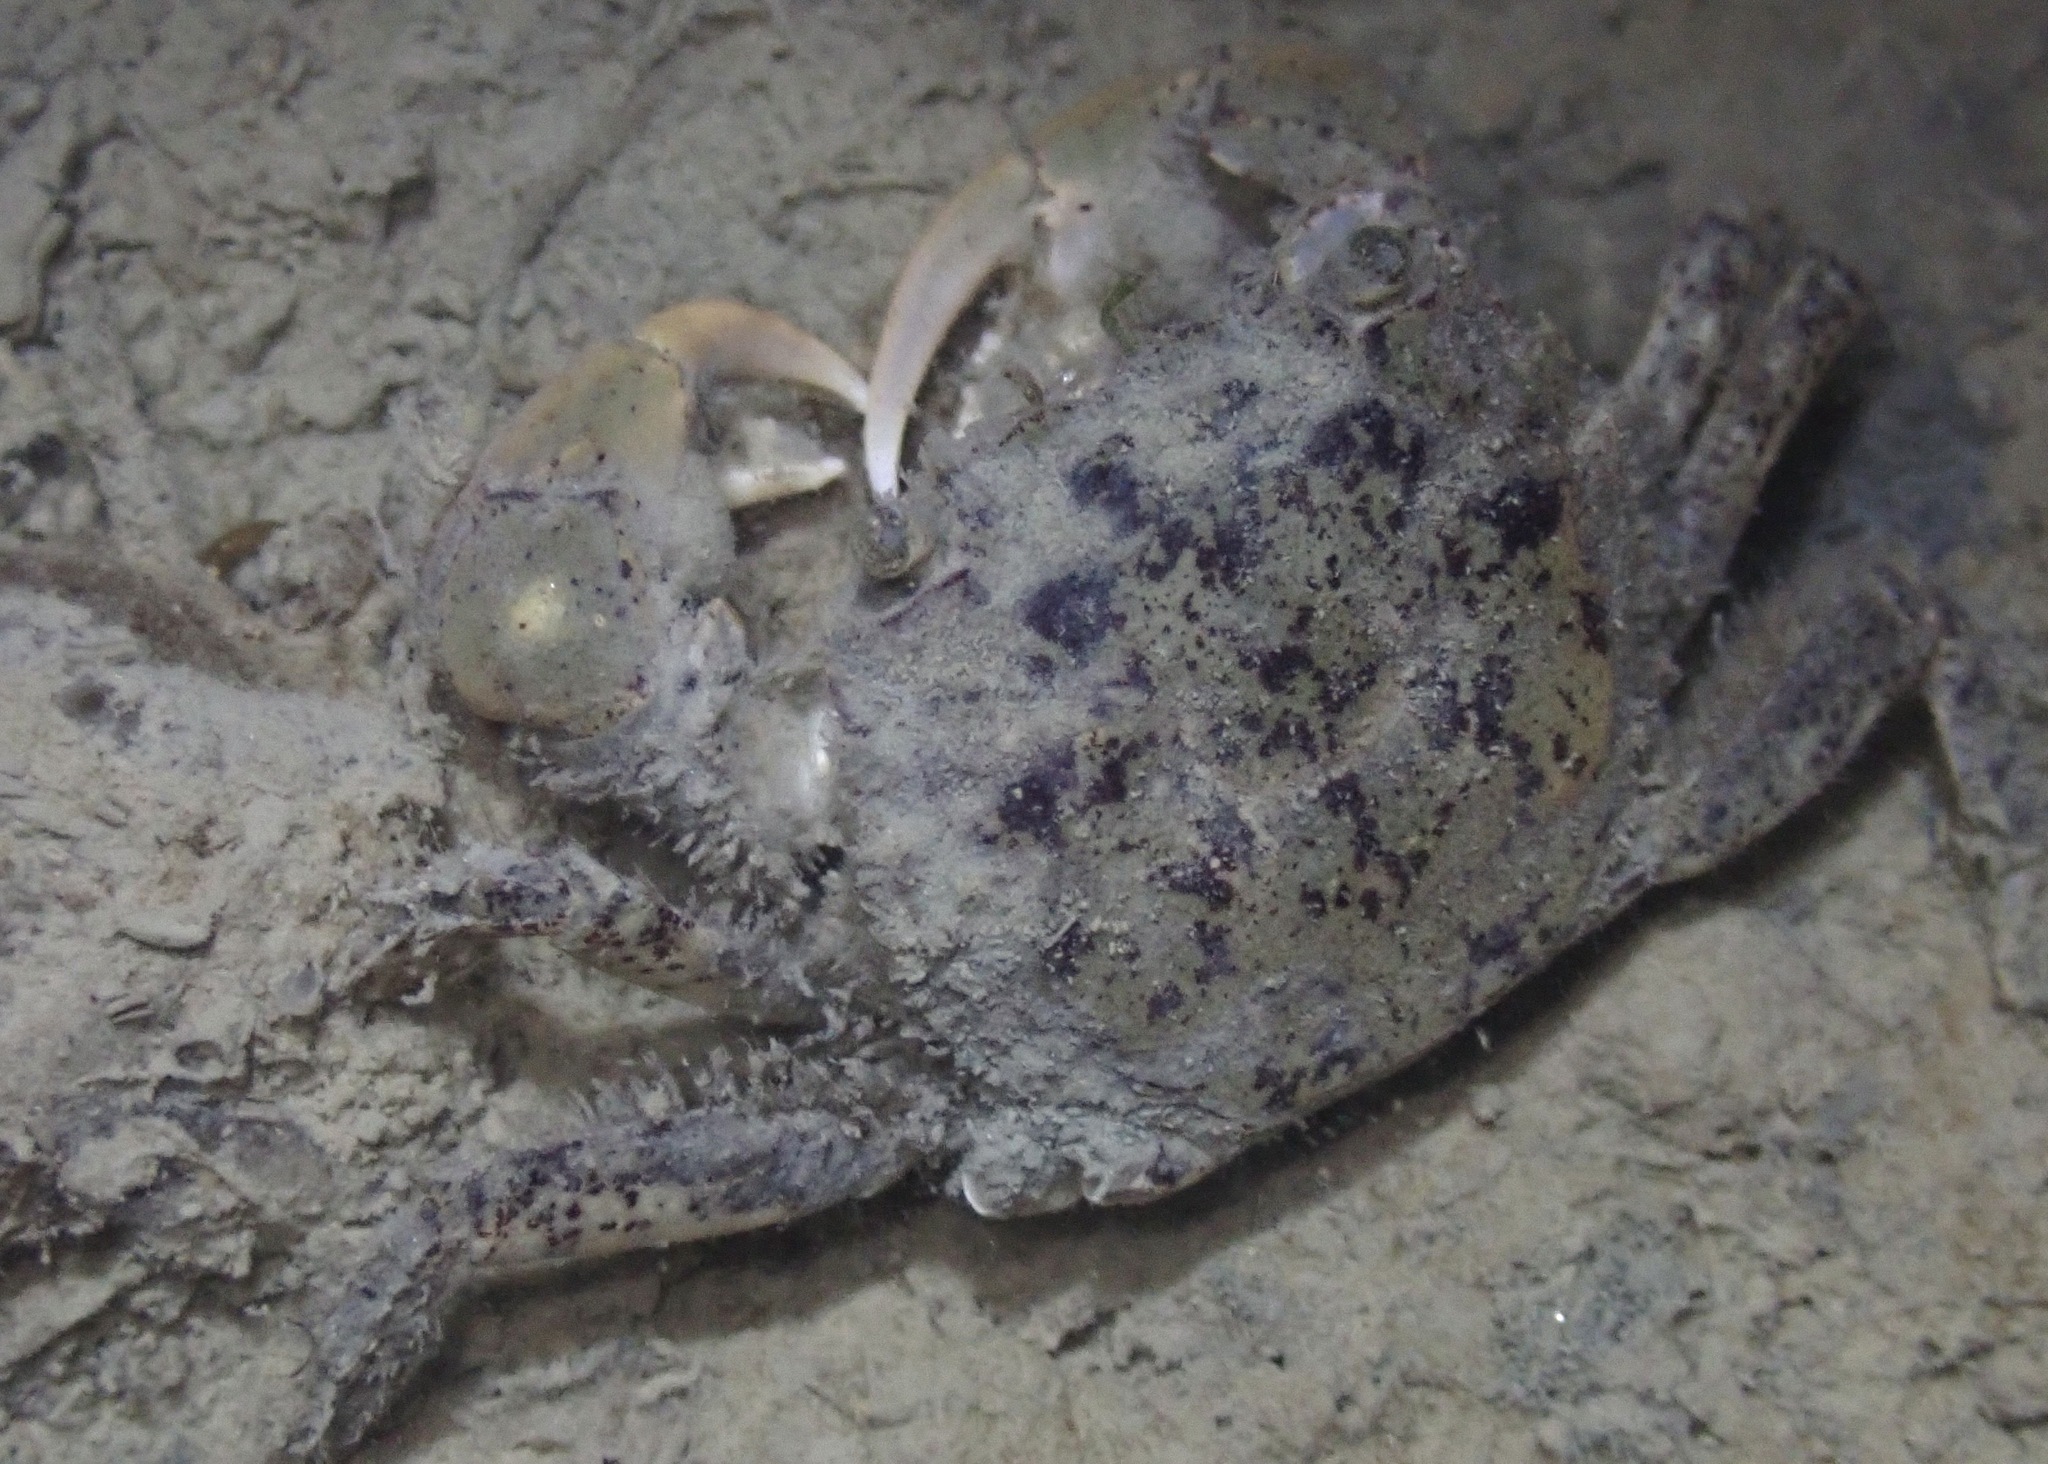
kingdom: Animalia
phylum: Arthropoda
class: Malacostraca
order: Decapoda
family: Varunidae
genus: Hemigrapsus
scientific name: Hemigrapsus oregonensis
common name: Yellow shore crab
